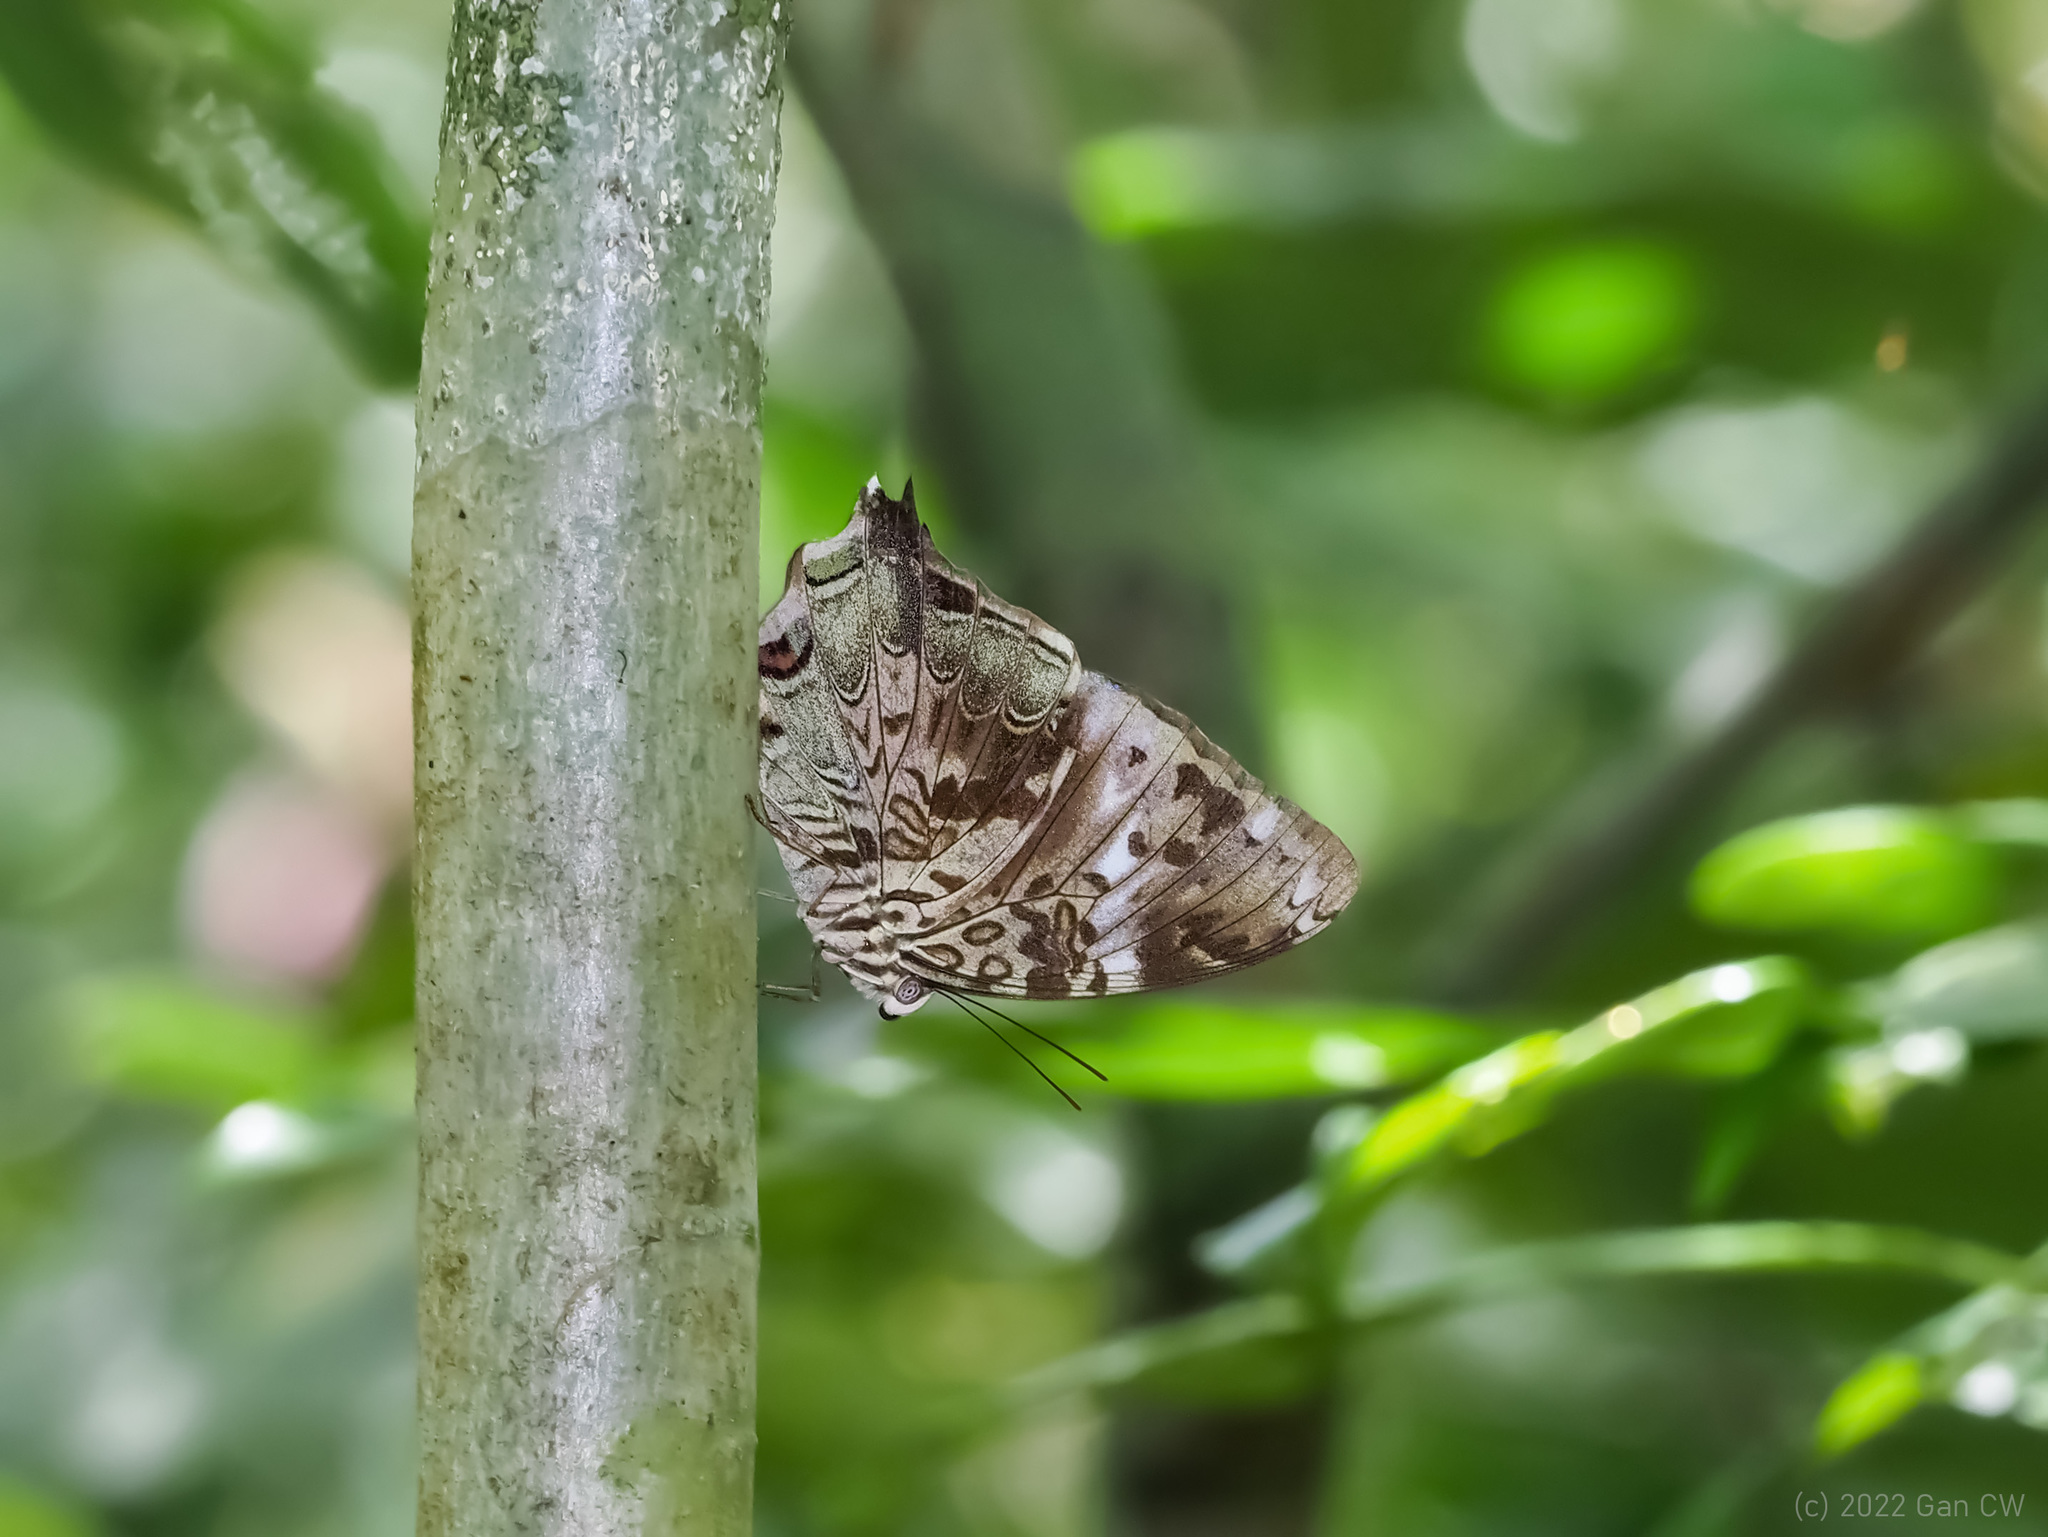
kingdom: Animalia
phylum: Arthropoda
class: Insecta
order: Lepidoptera
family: Nymphalidae
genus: Prothoe
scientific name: Prothoe franck
